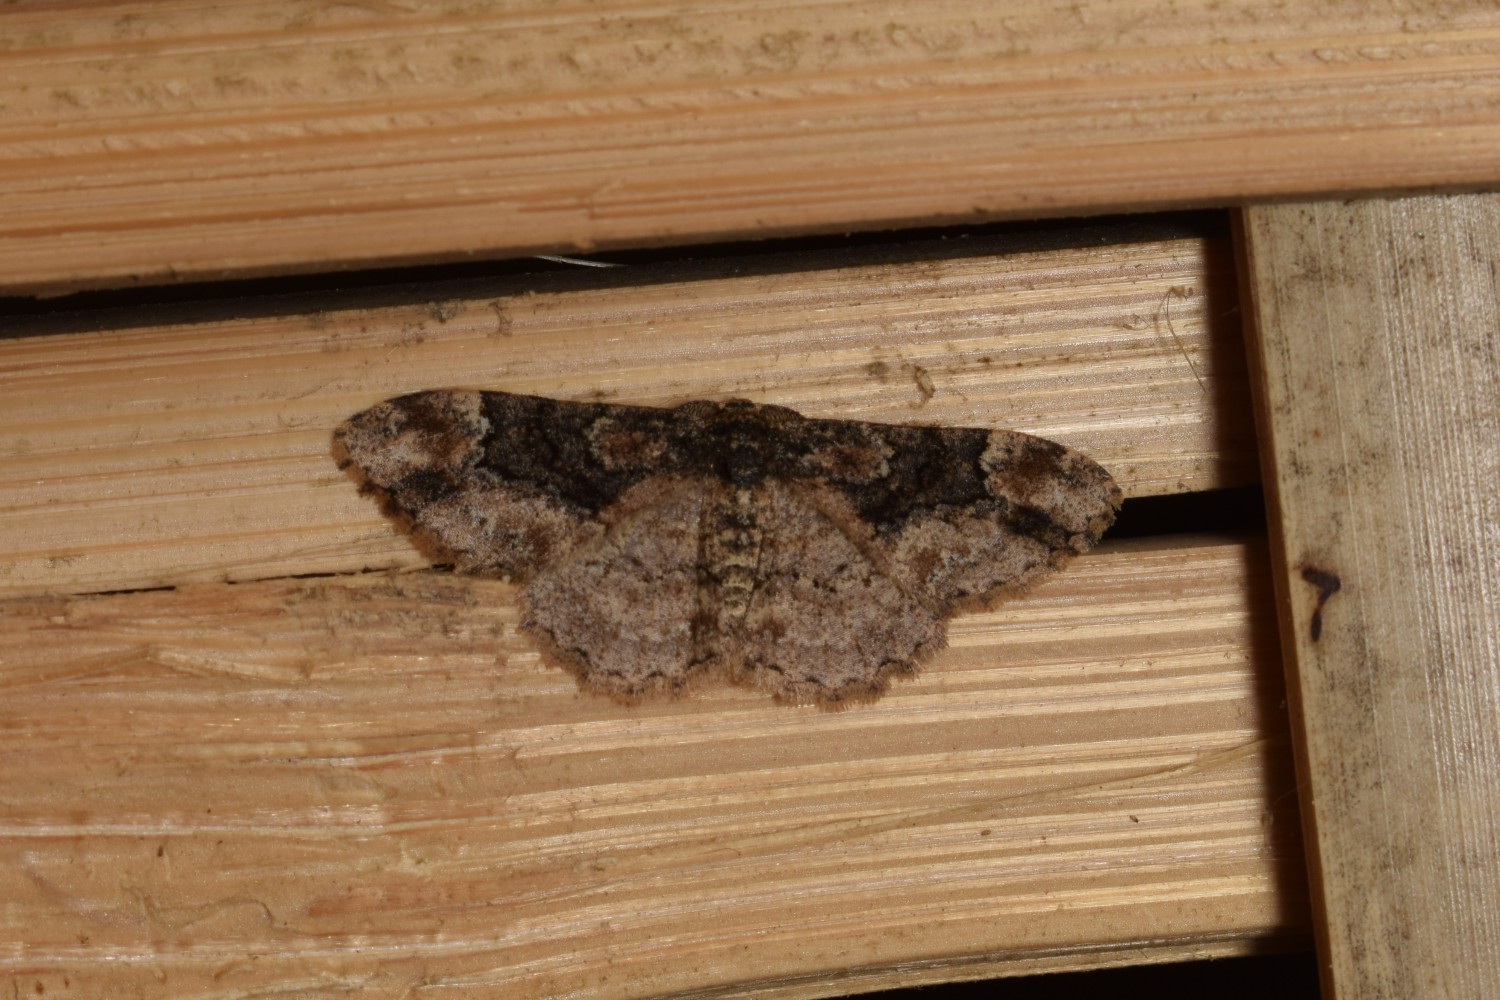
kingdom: Animalia
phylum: Arthropoda
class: Insecta
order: Lepidoptera
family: Geometridae
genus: Parapholodes
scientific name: Parapholodes
